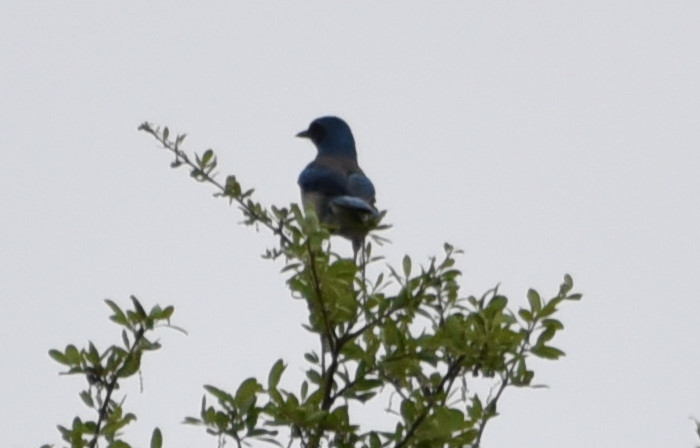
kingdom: Animalia
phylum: Chordata
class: Aves
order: Passeriformes
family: Corvidae
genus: Aphelocoma
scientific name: Aphelocoma woodhouseii
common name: Woodhouse's scrub-jay
